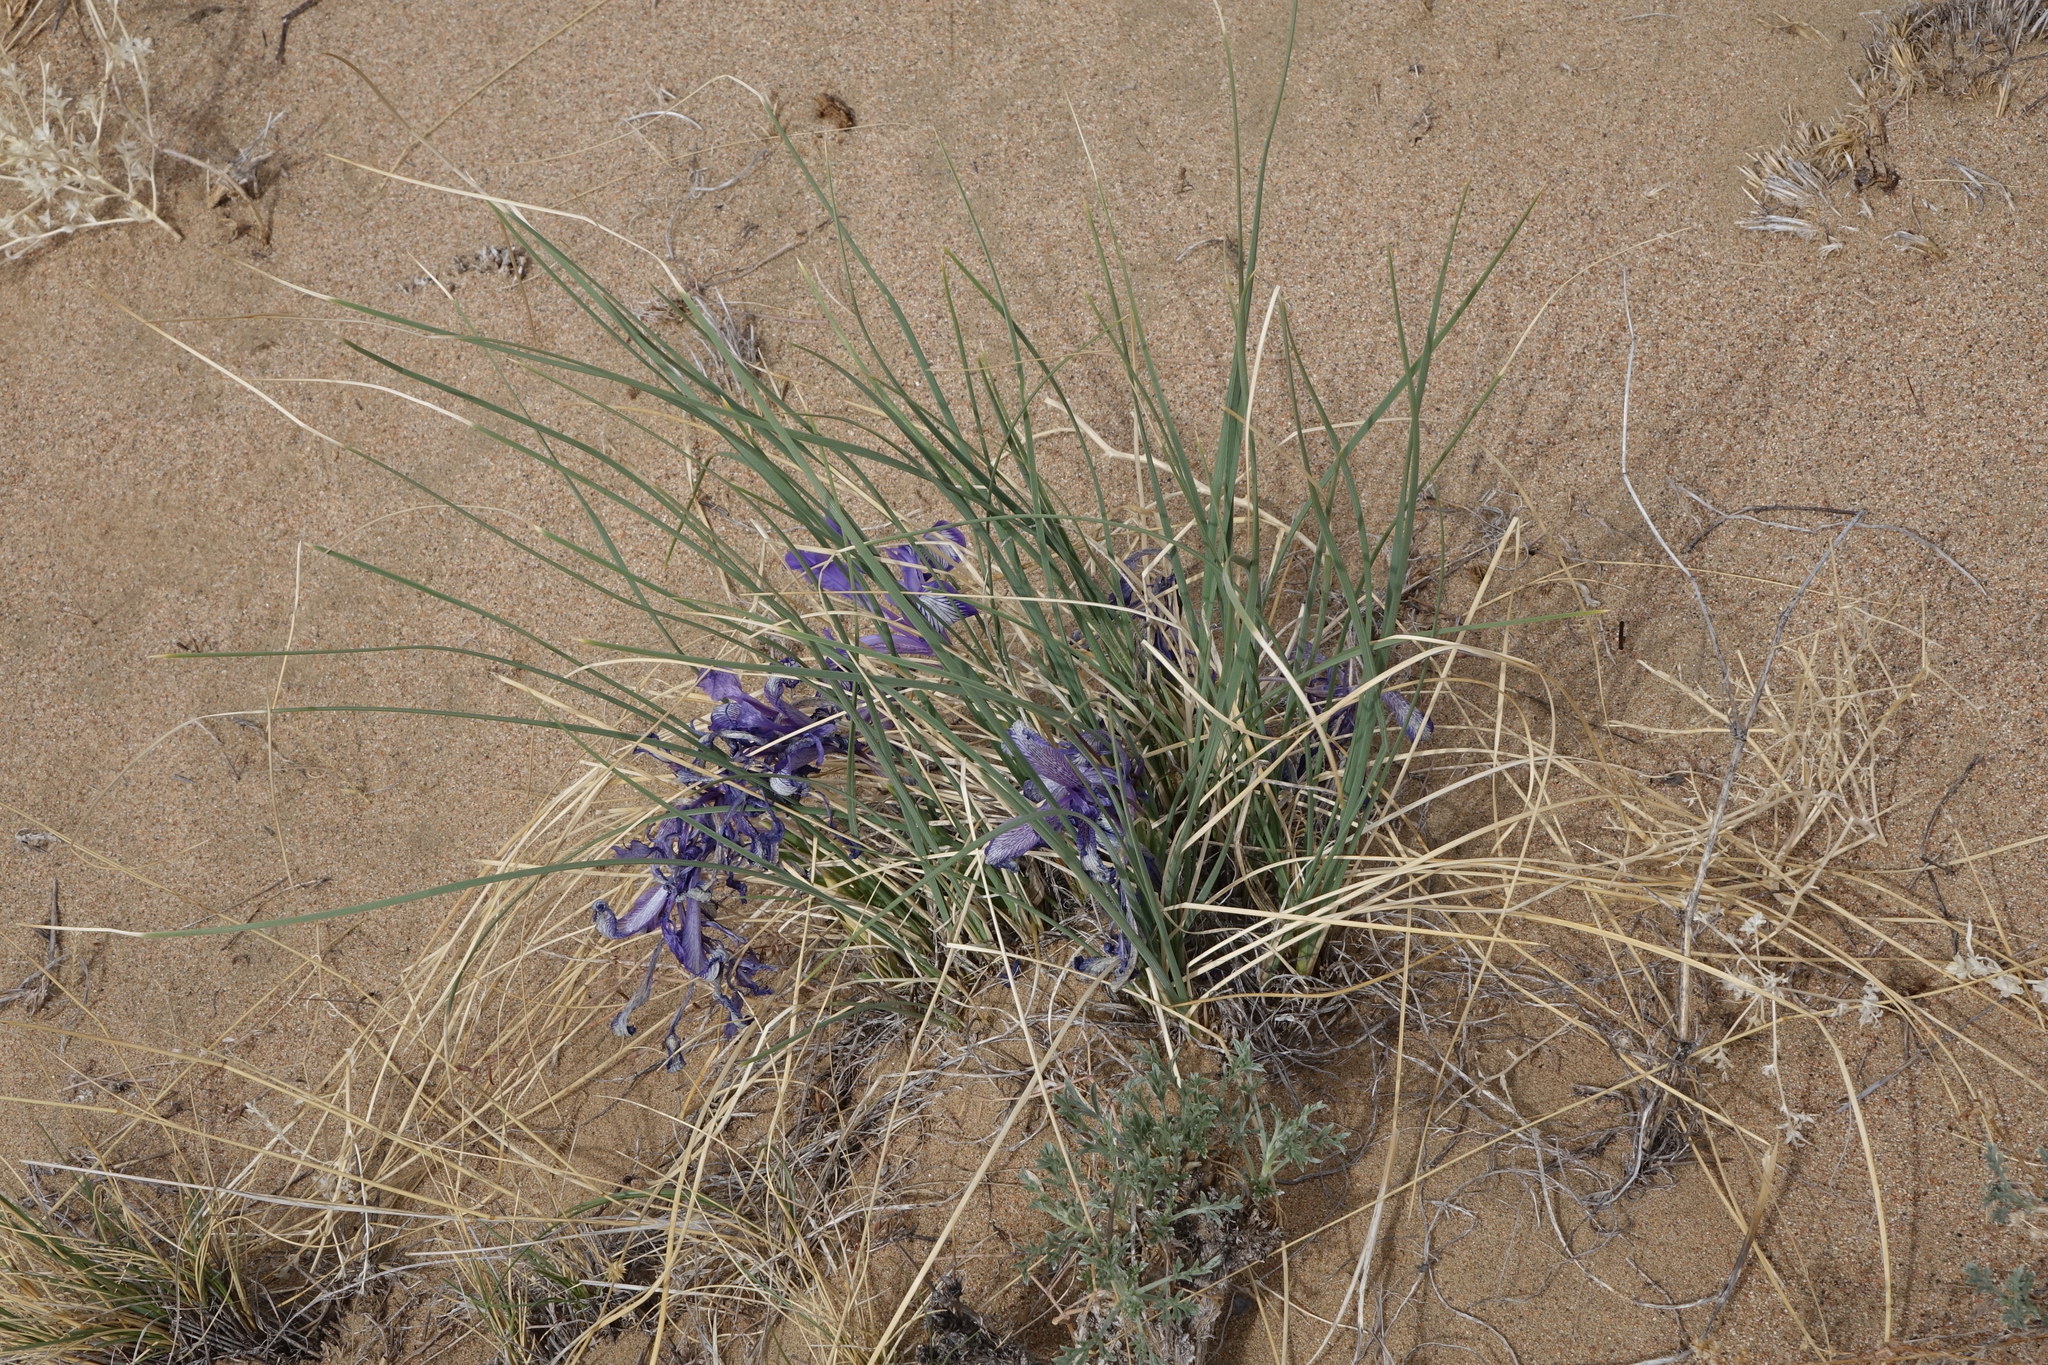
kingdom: Plantae
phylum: Tracheophyta
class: Liliopsida
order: Asparagales
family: Iridaceae
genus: Iris
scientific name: Iris tenuifolia
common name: Slender-leaf iris
